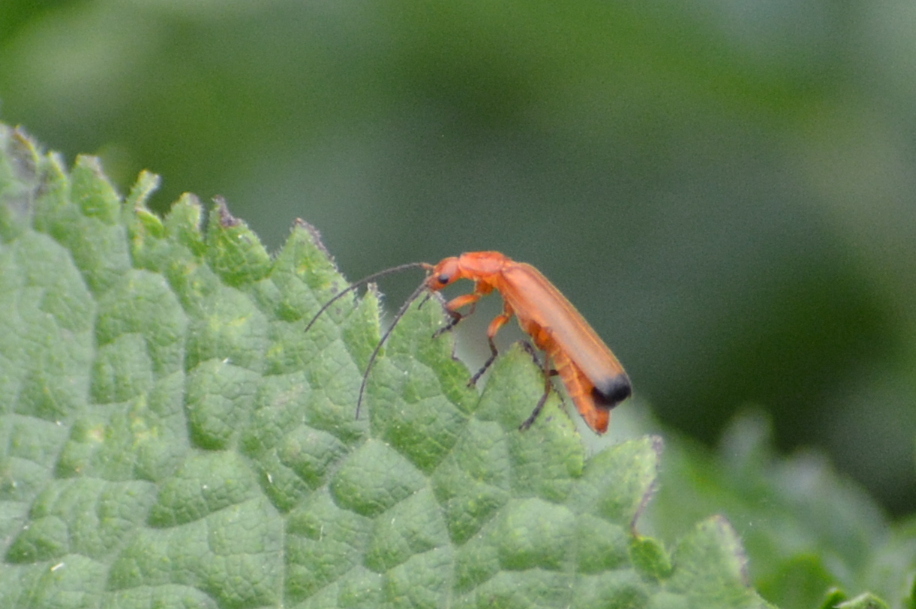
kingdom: Animalia
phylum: Arthropoda
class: Insecta
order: Coleoptera
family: Cantharidae
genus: Rhagonycha
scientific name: Rhagonycha fulva
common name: Common red soldier beetle
